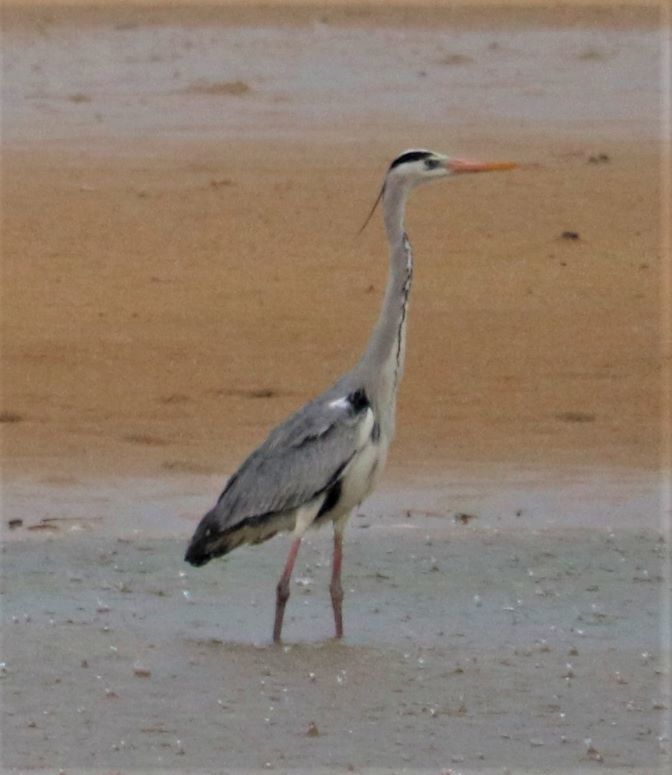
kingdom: Animalia
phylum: Chordata
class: Aves
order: Pelecaniformes
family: Ardeidae
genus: Ardea
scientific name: Ardea cinerea
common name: Grey heron
